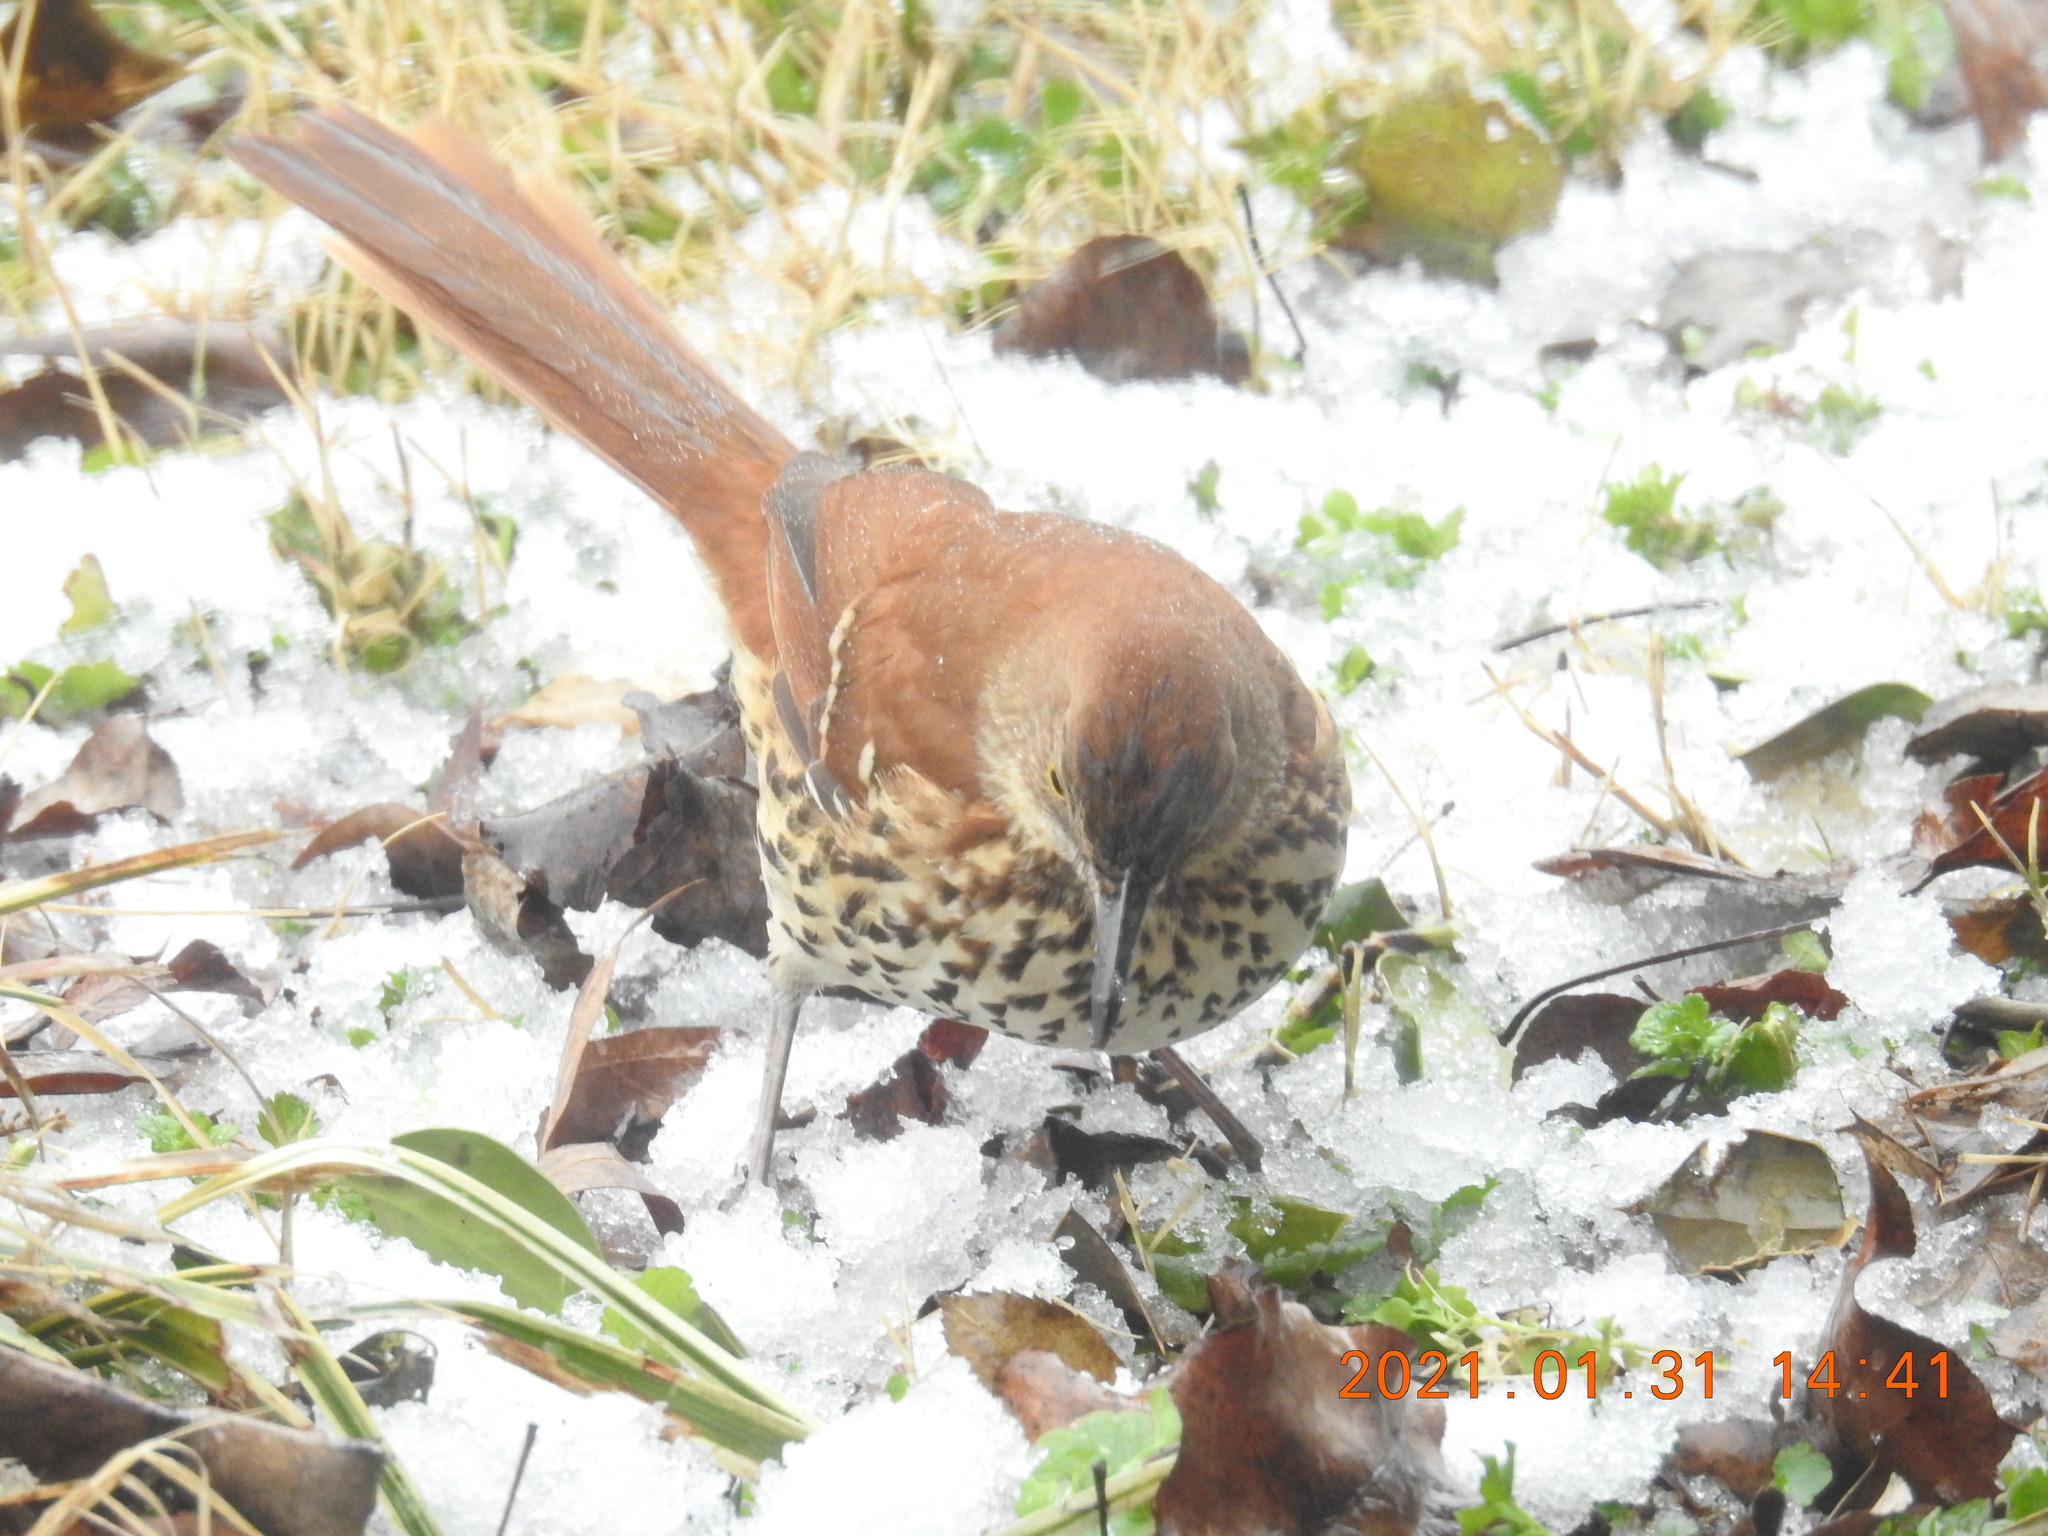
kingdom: Animalia
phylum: Chordata
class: Aves
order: Passeriformes
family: Mimidae
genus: Toxostoma
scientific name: Toxostoma rufum
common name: Brown thrasher
